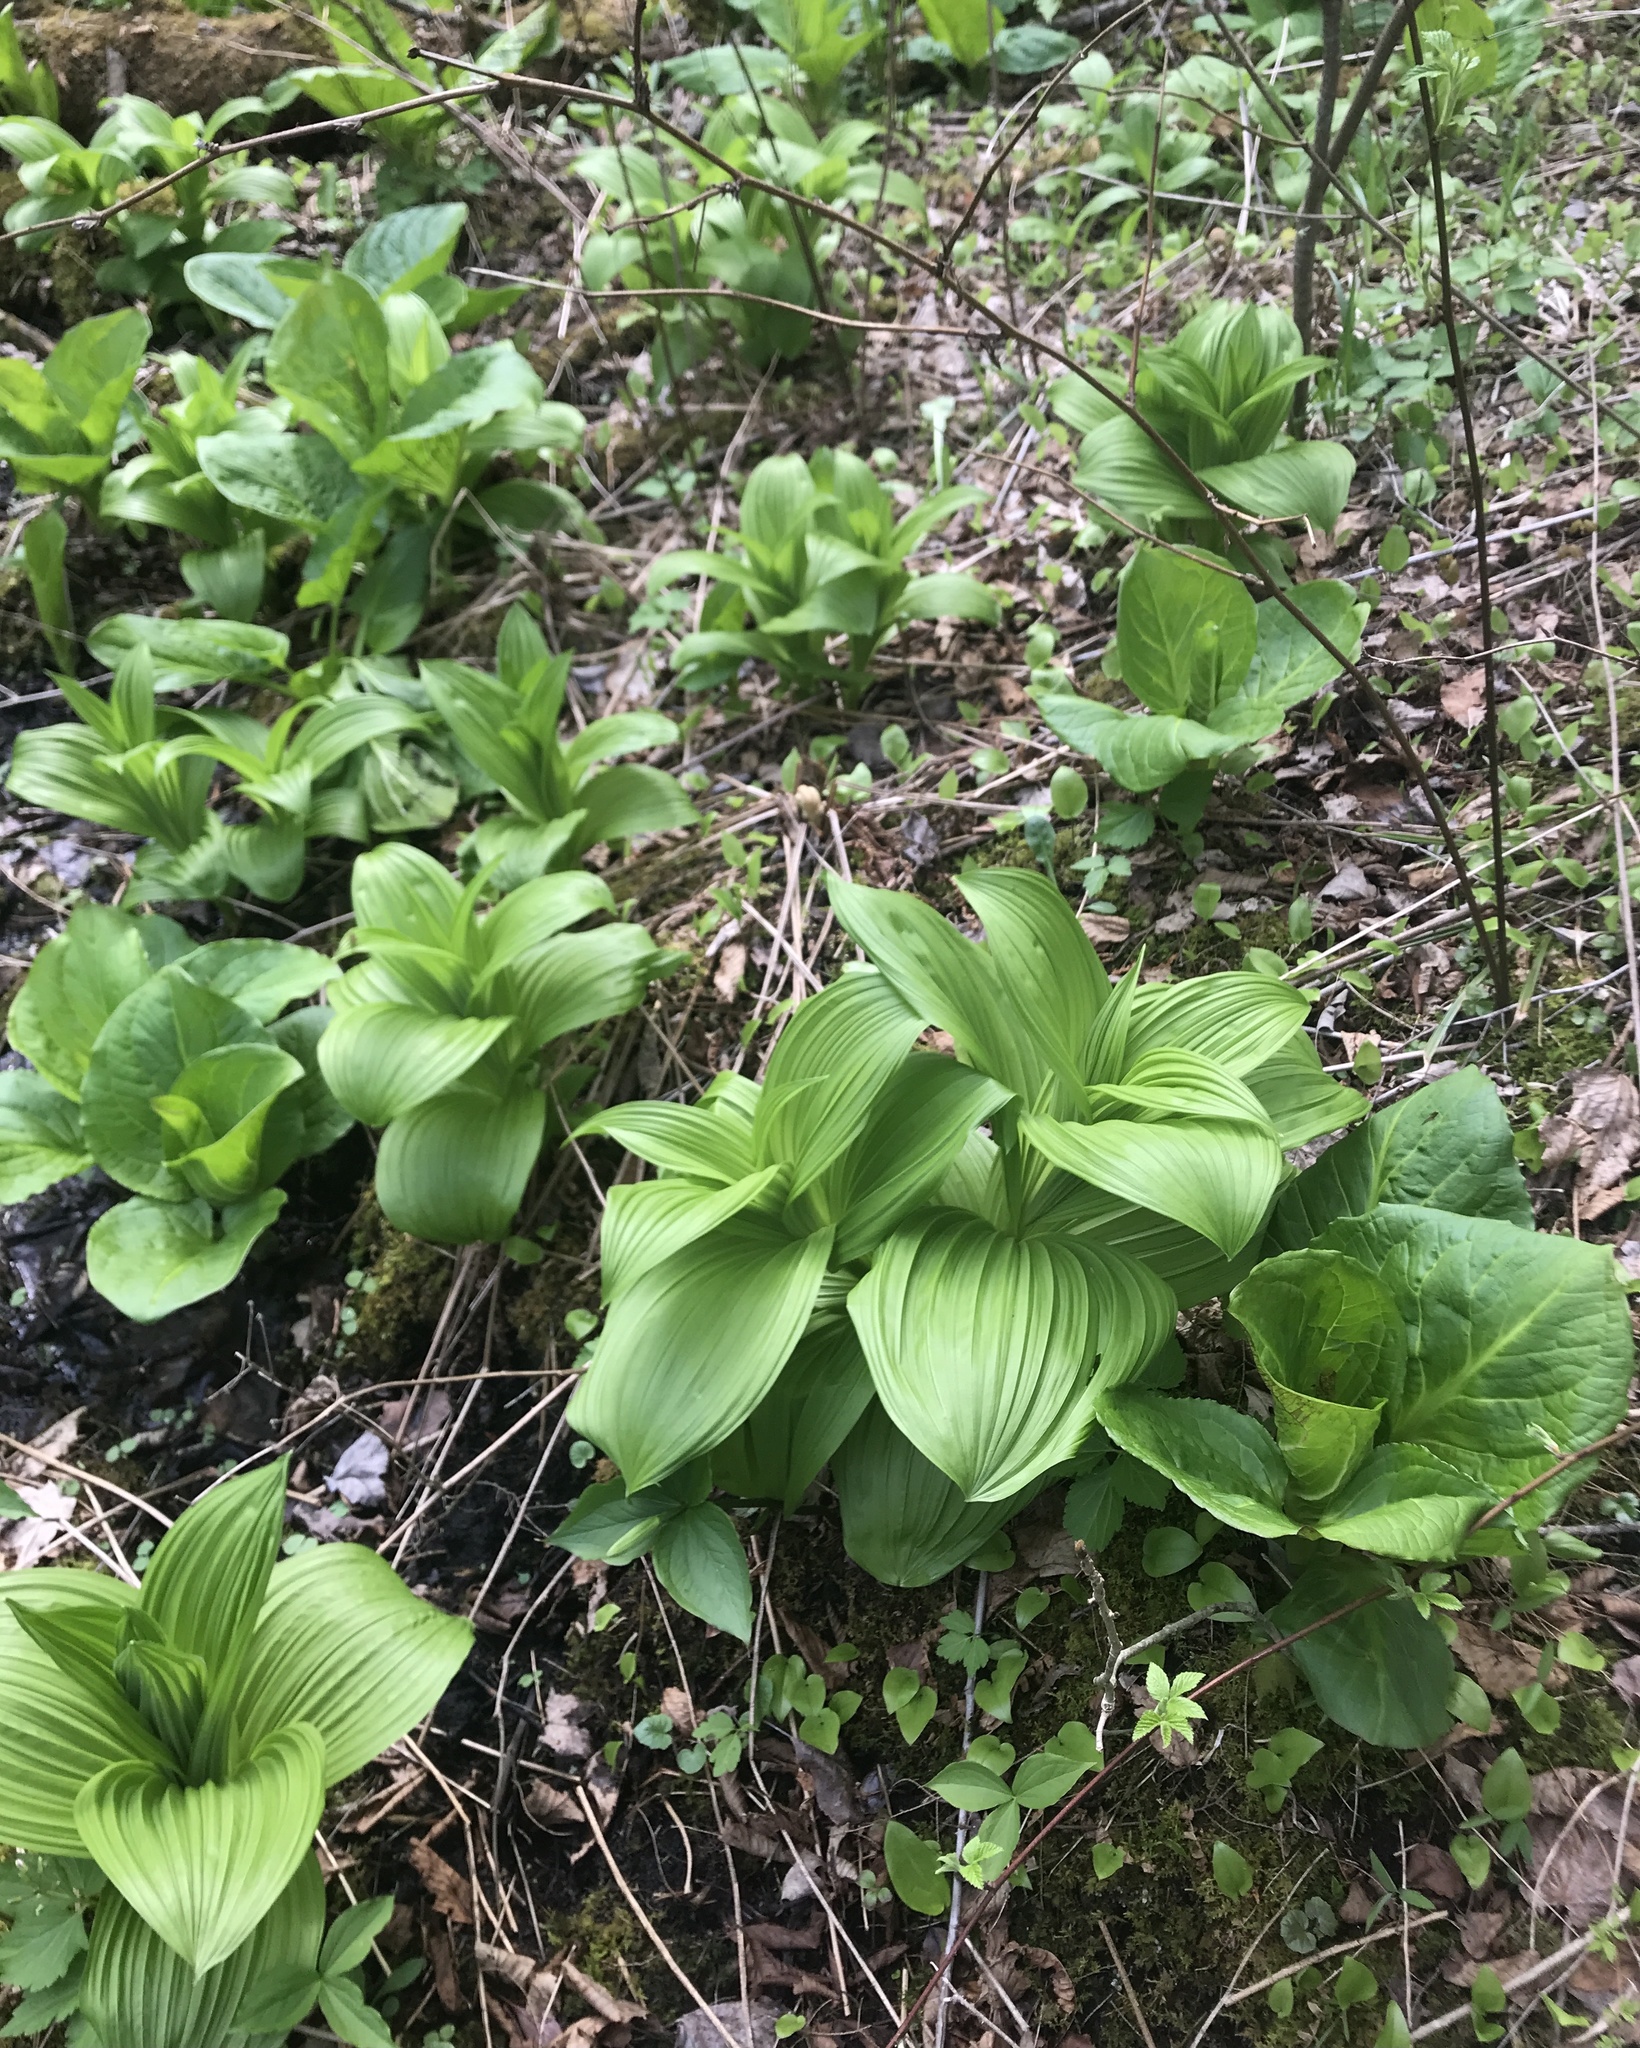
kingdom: Plantae
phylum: Tracheophyta
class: Liliopsida
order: Liliales
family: Melanthiaceae
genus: Veratrum
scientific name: Veratrum viride
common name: American false hellebore
